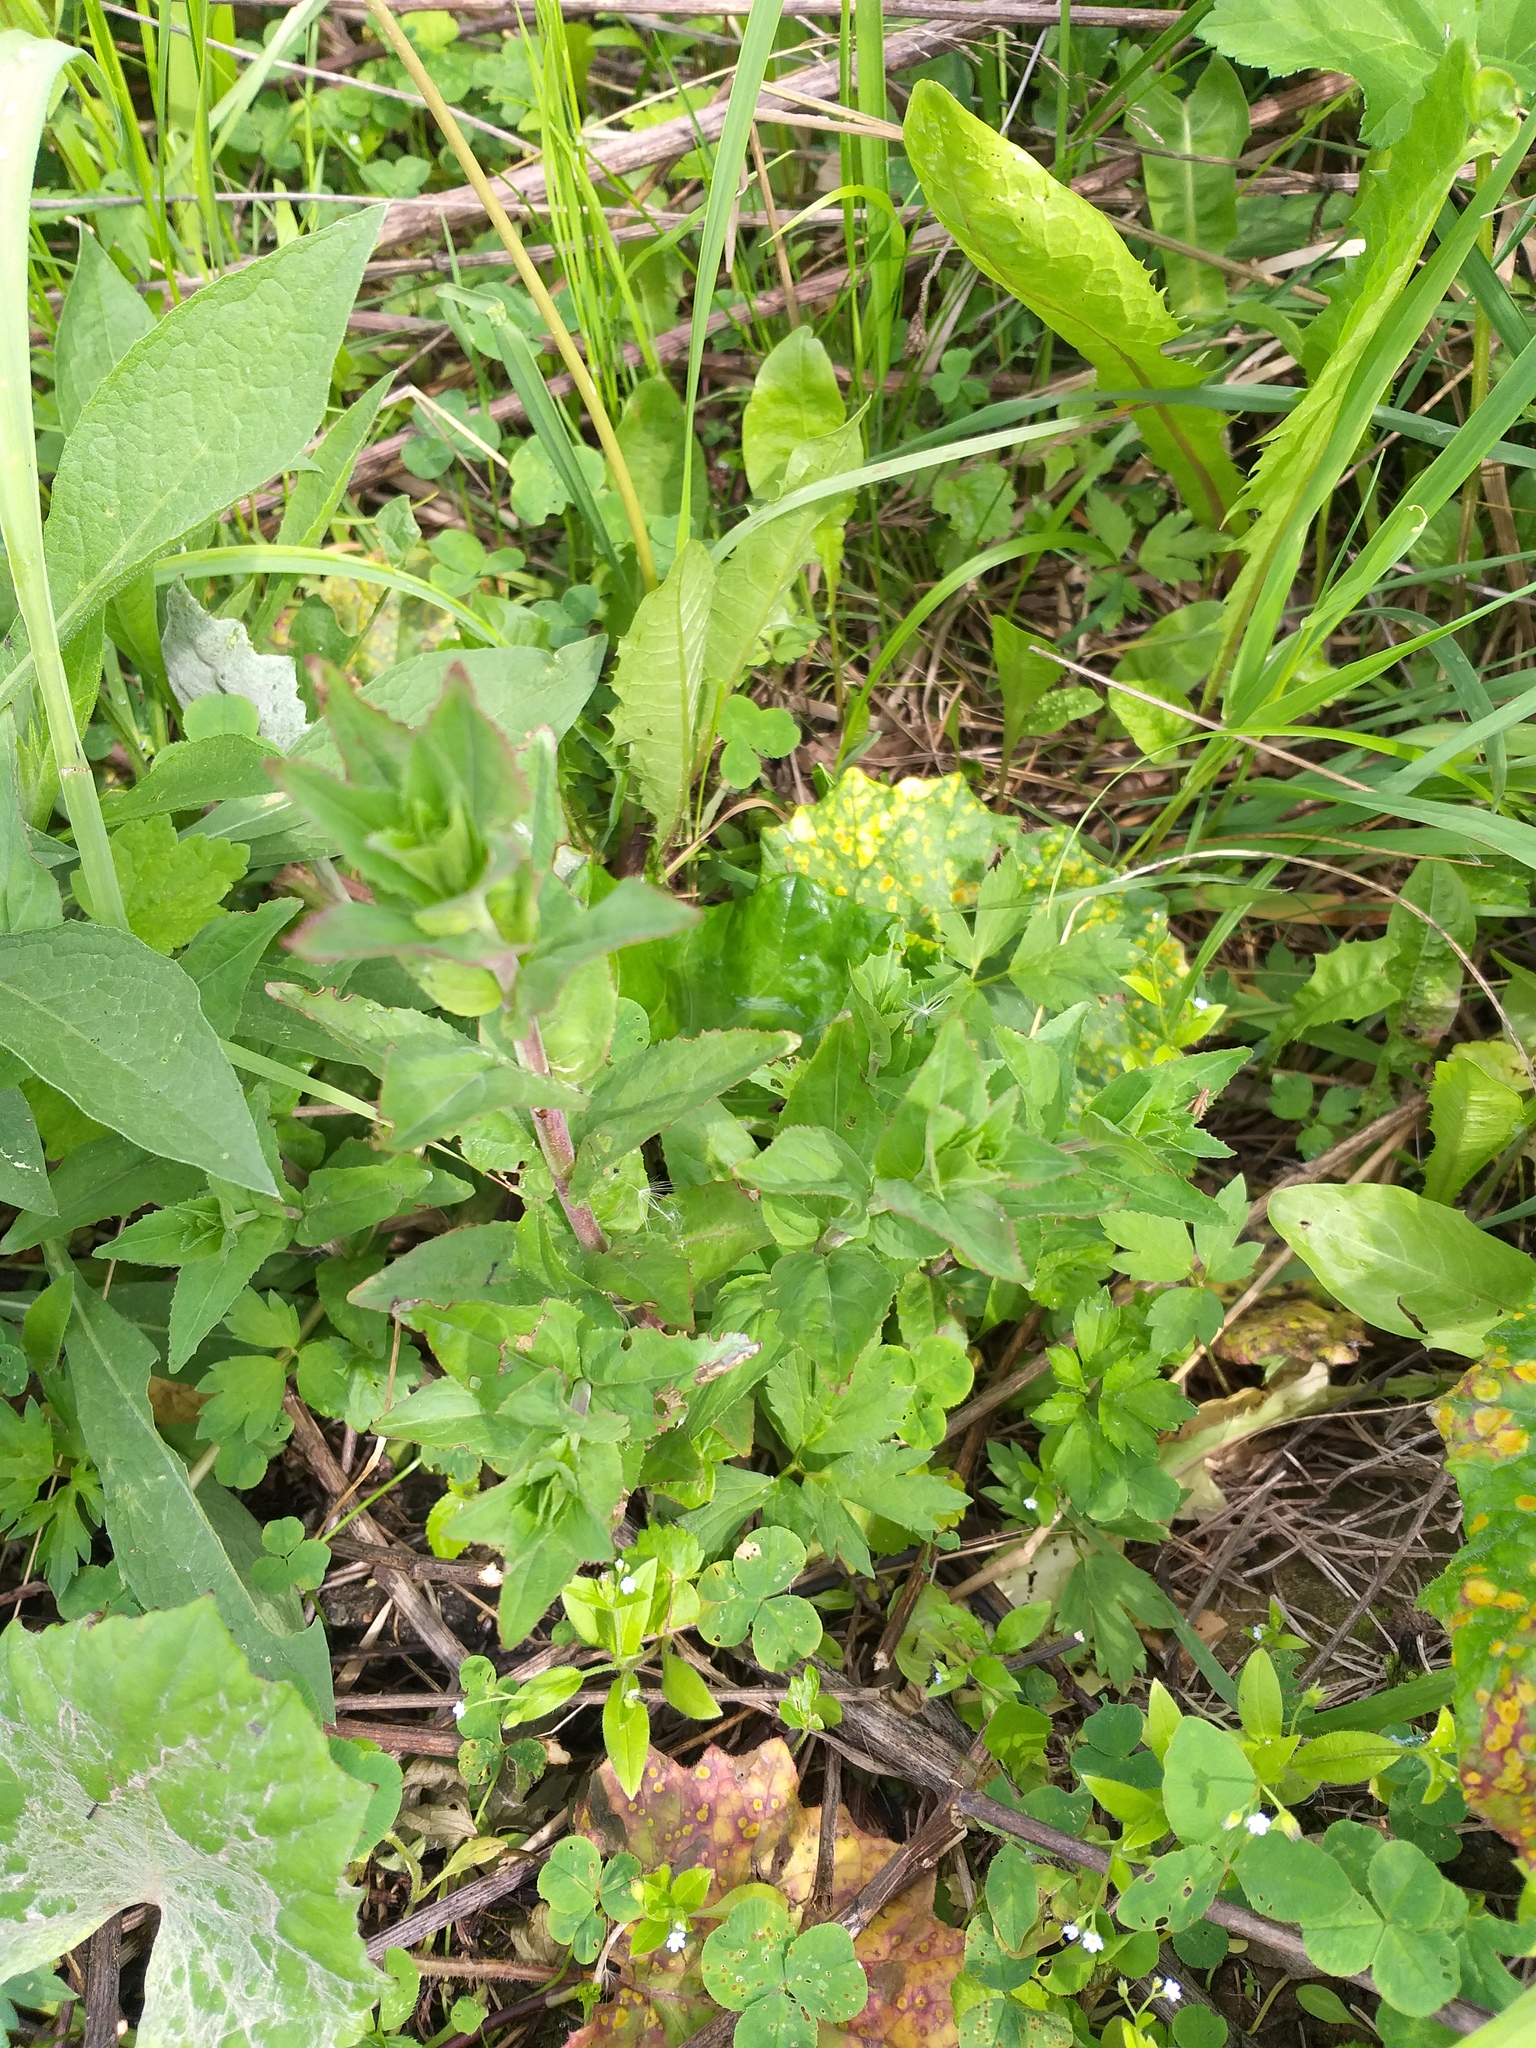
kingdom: Plantae
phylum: Tracheophyta
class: Magnoliopsida
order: Myrtales
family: Onagraceae
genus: Epilobium
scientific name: Epilobium montanum
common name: Broad-leaved willowherb
